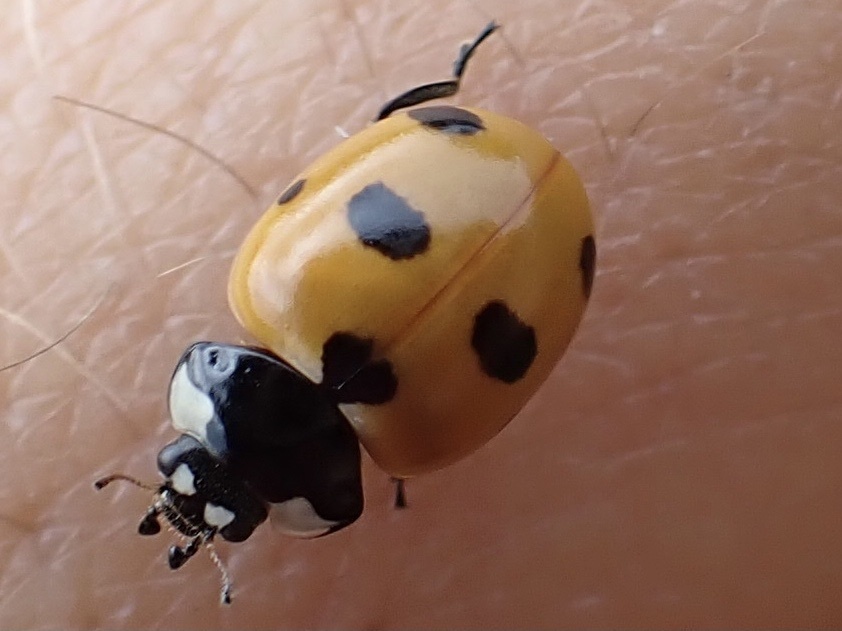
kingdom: Animalia
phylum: Arthropoda
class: Insecta
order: Coleoptera
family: Coccinellidae
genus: Coccinella
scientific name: Coccinella magnifica
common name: Scarce 7-spot ladybird
